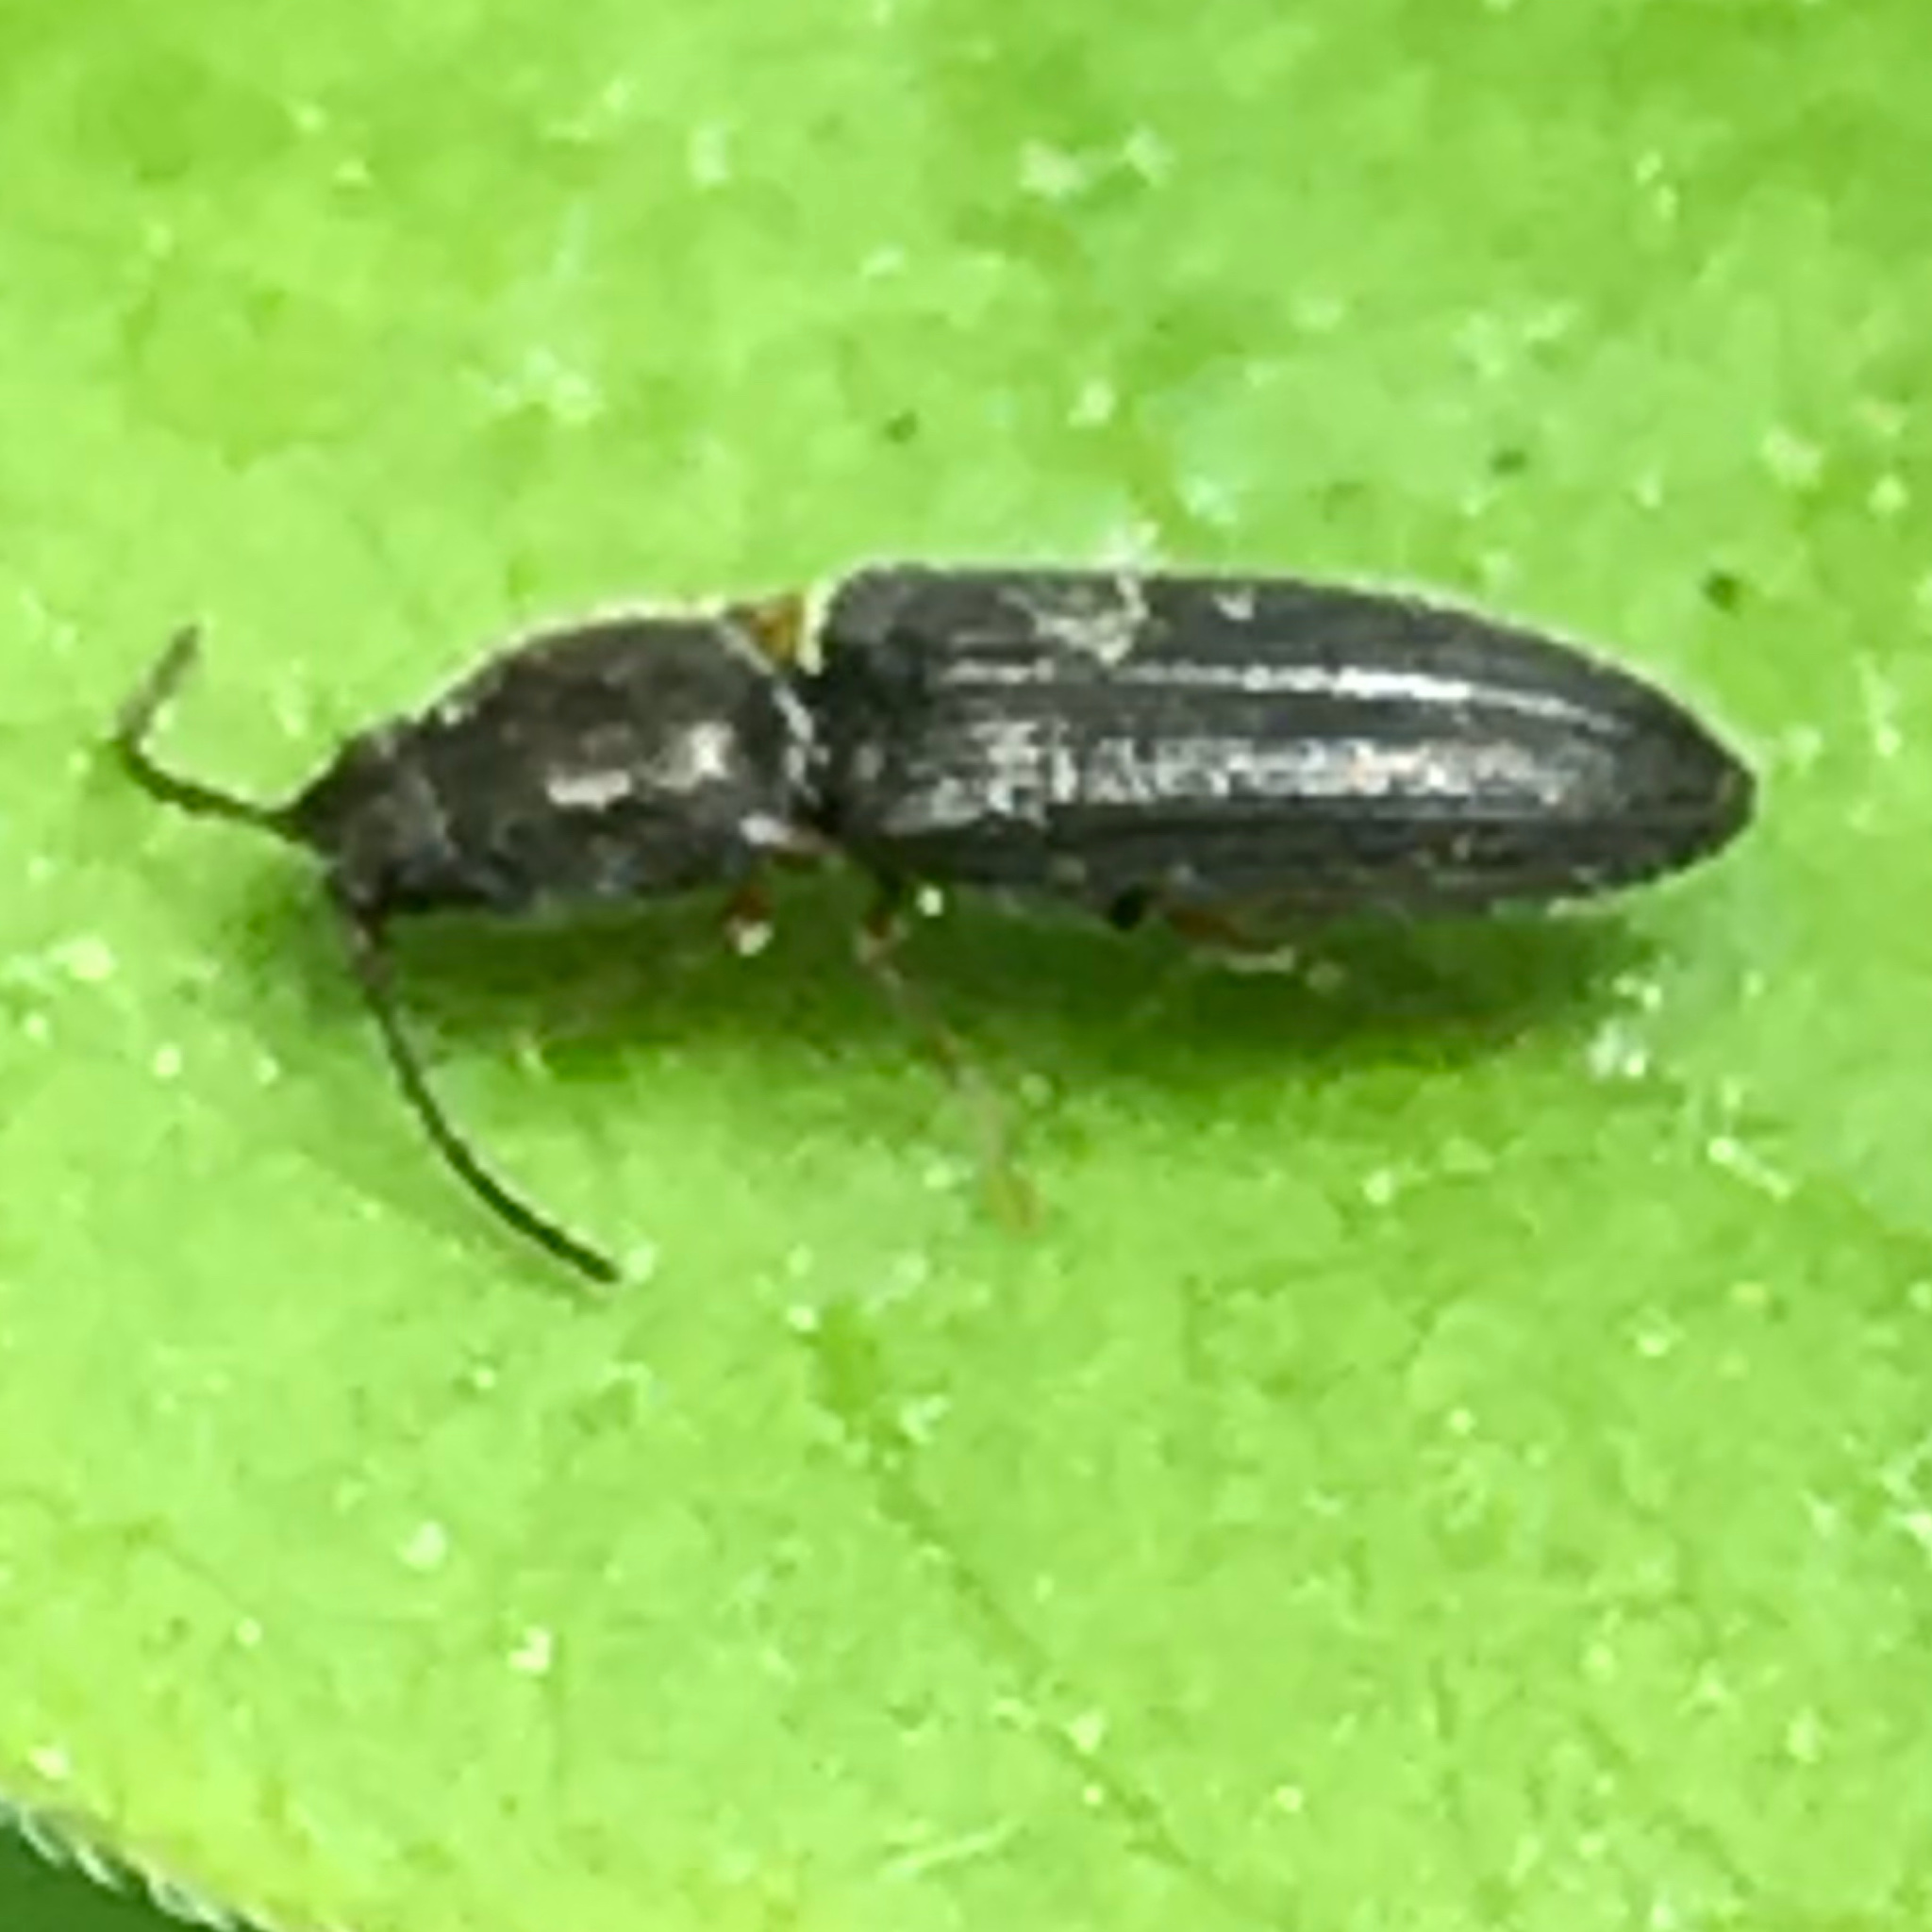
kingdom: Animalia
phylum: Arthropoda
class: Insecta
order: Coleoptera
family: Elateridae
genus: Limonius
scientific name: Limonius basilaris
